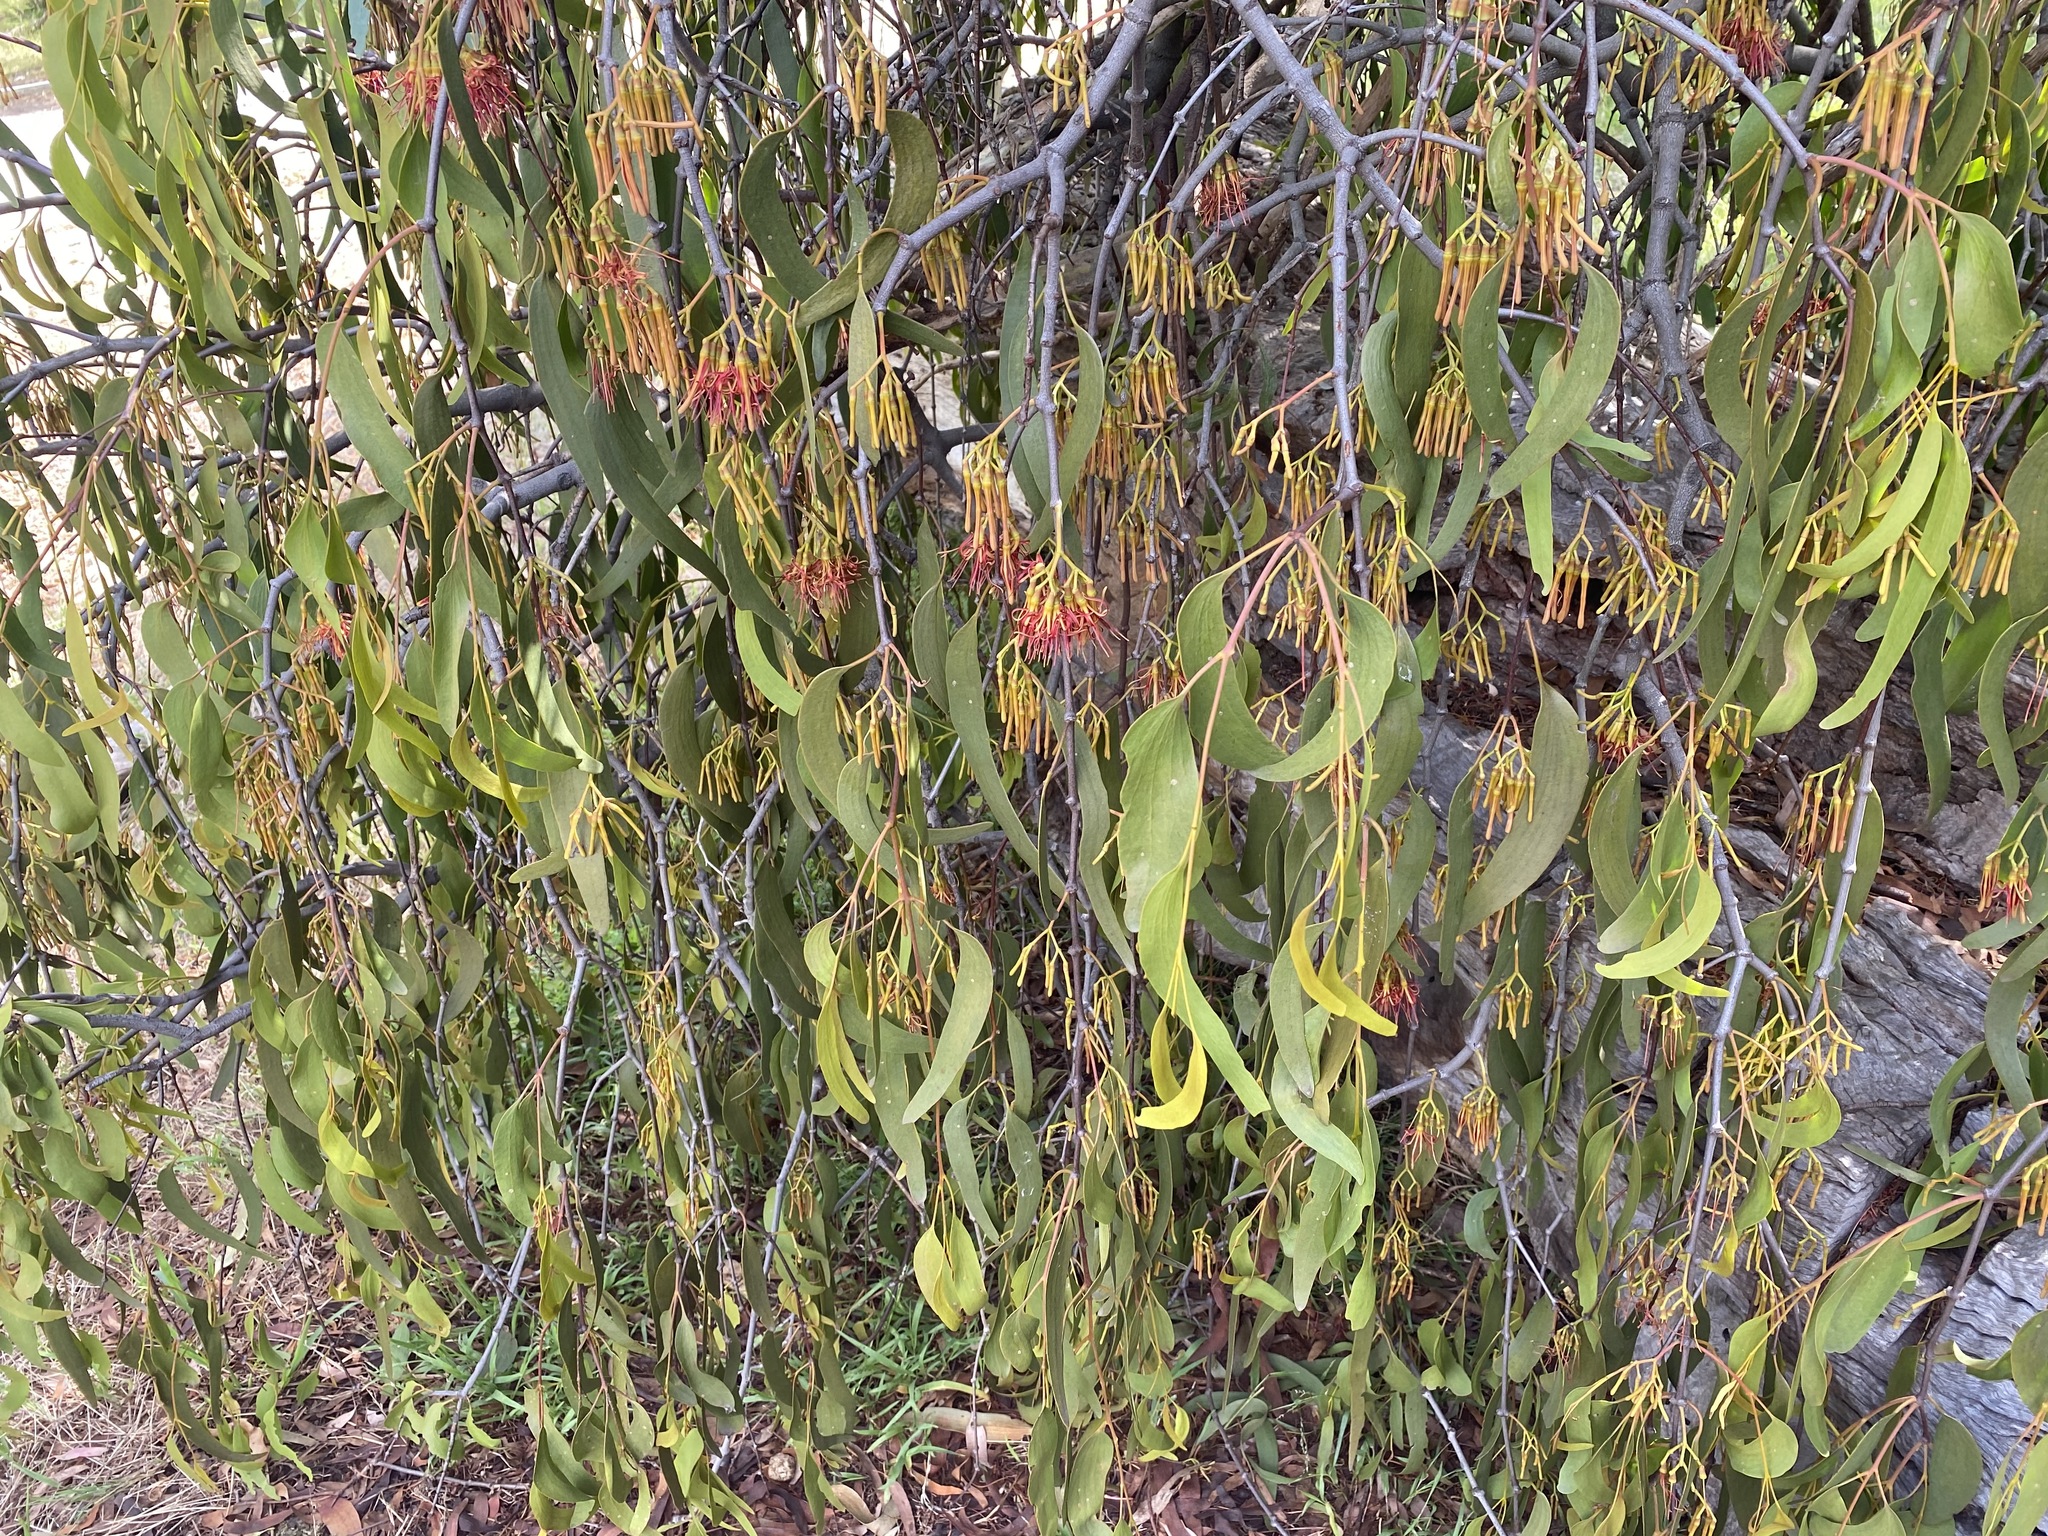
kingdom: Plantae
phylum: Tracheophyta
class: Magnoliopsida
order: Santalales
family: Loranthaceae
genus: Amyema
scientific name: Amyema miquelii
